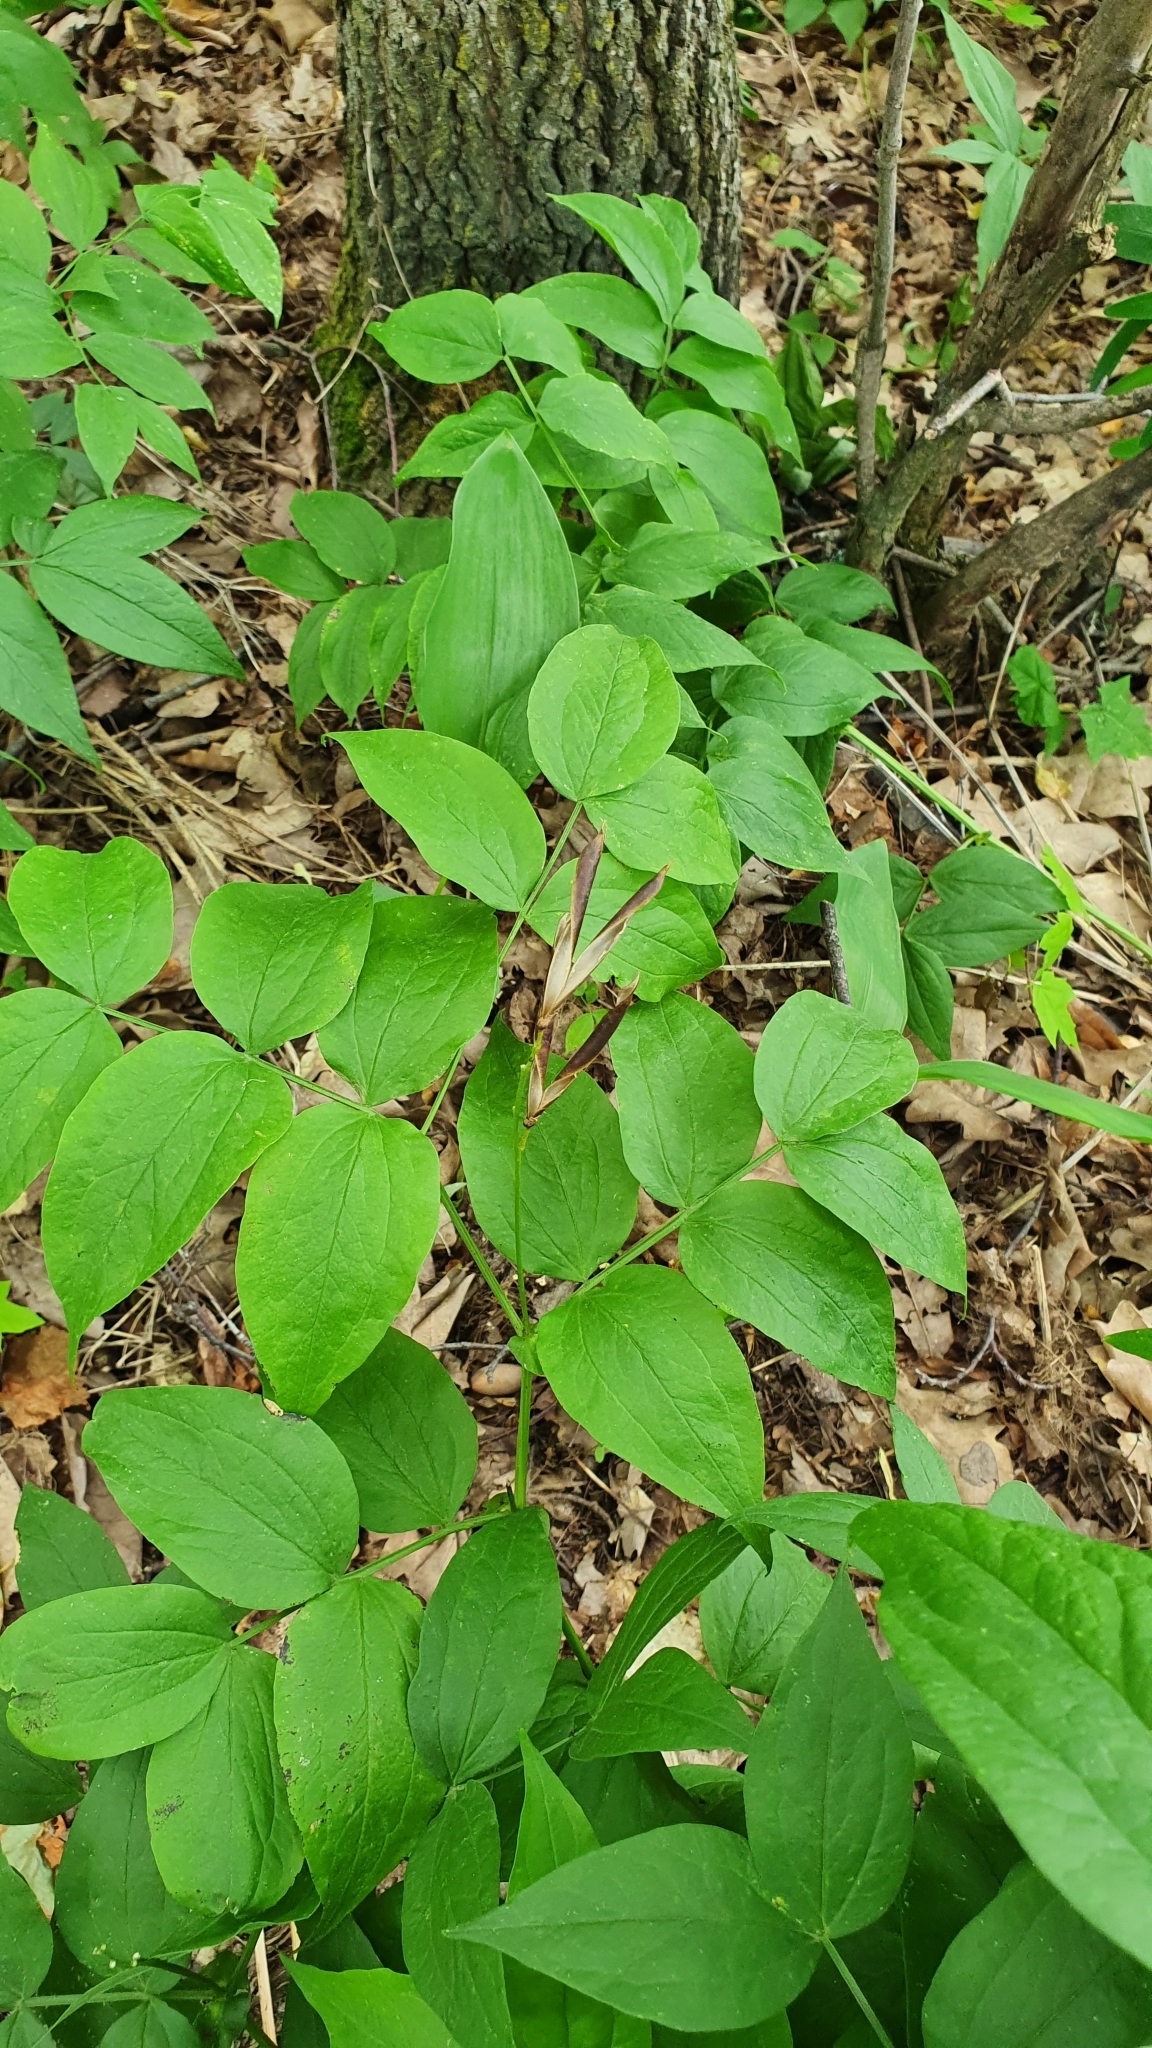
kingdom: Plantae
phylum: Tracheophyta
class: Magnoliopsida
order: Fabales
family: Fabaceae
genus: Lathyrus
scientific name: Lathyrus vernus
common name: Spring pea
